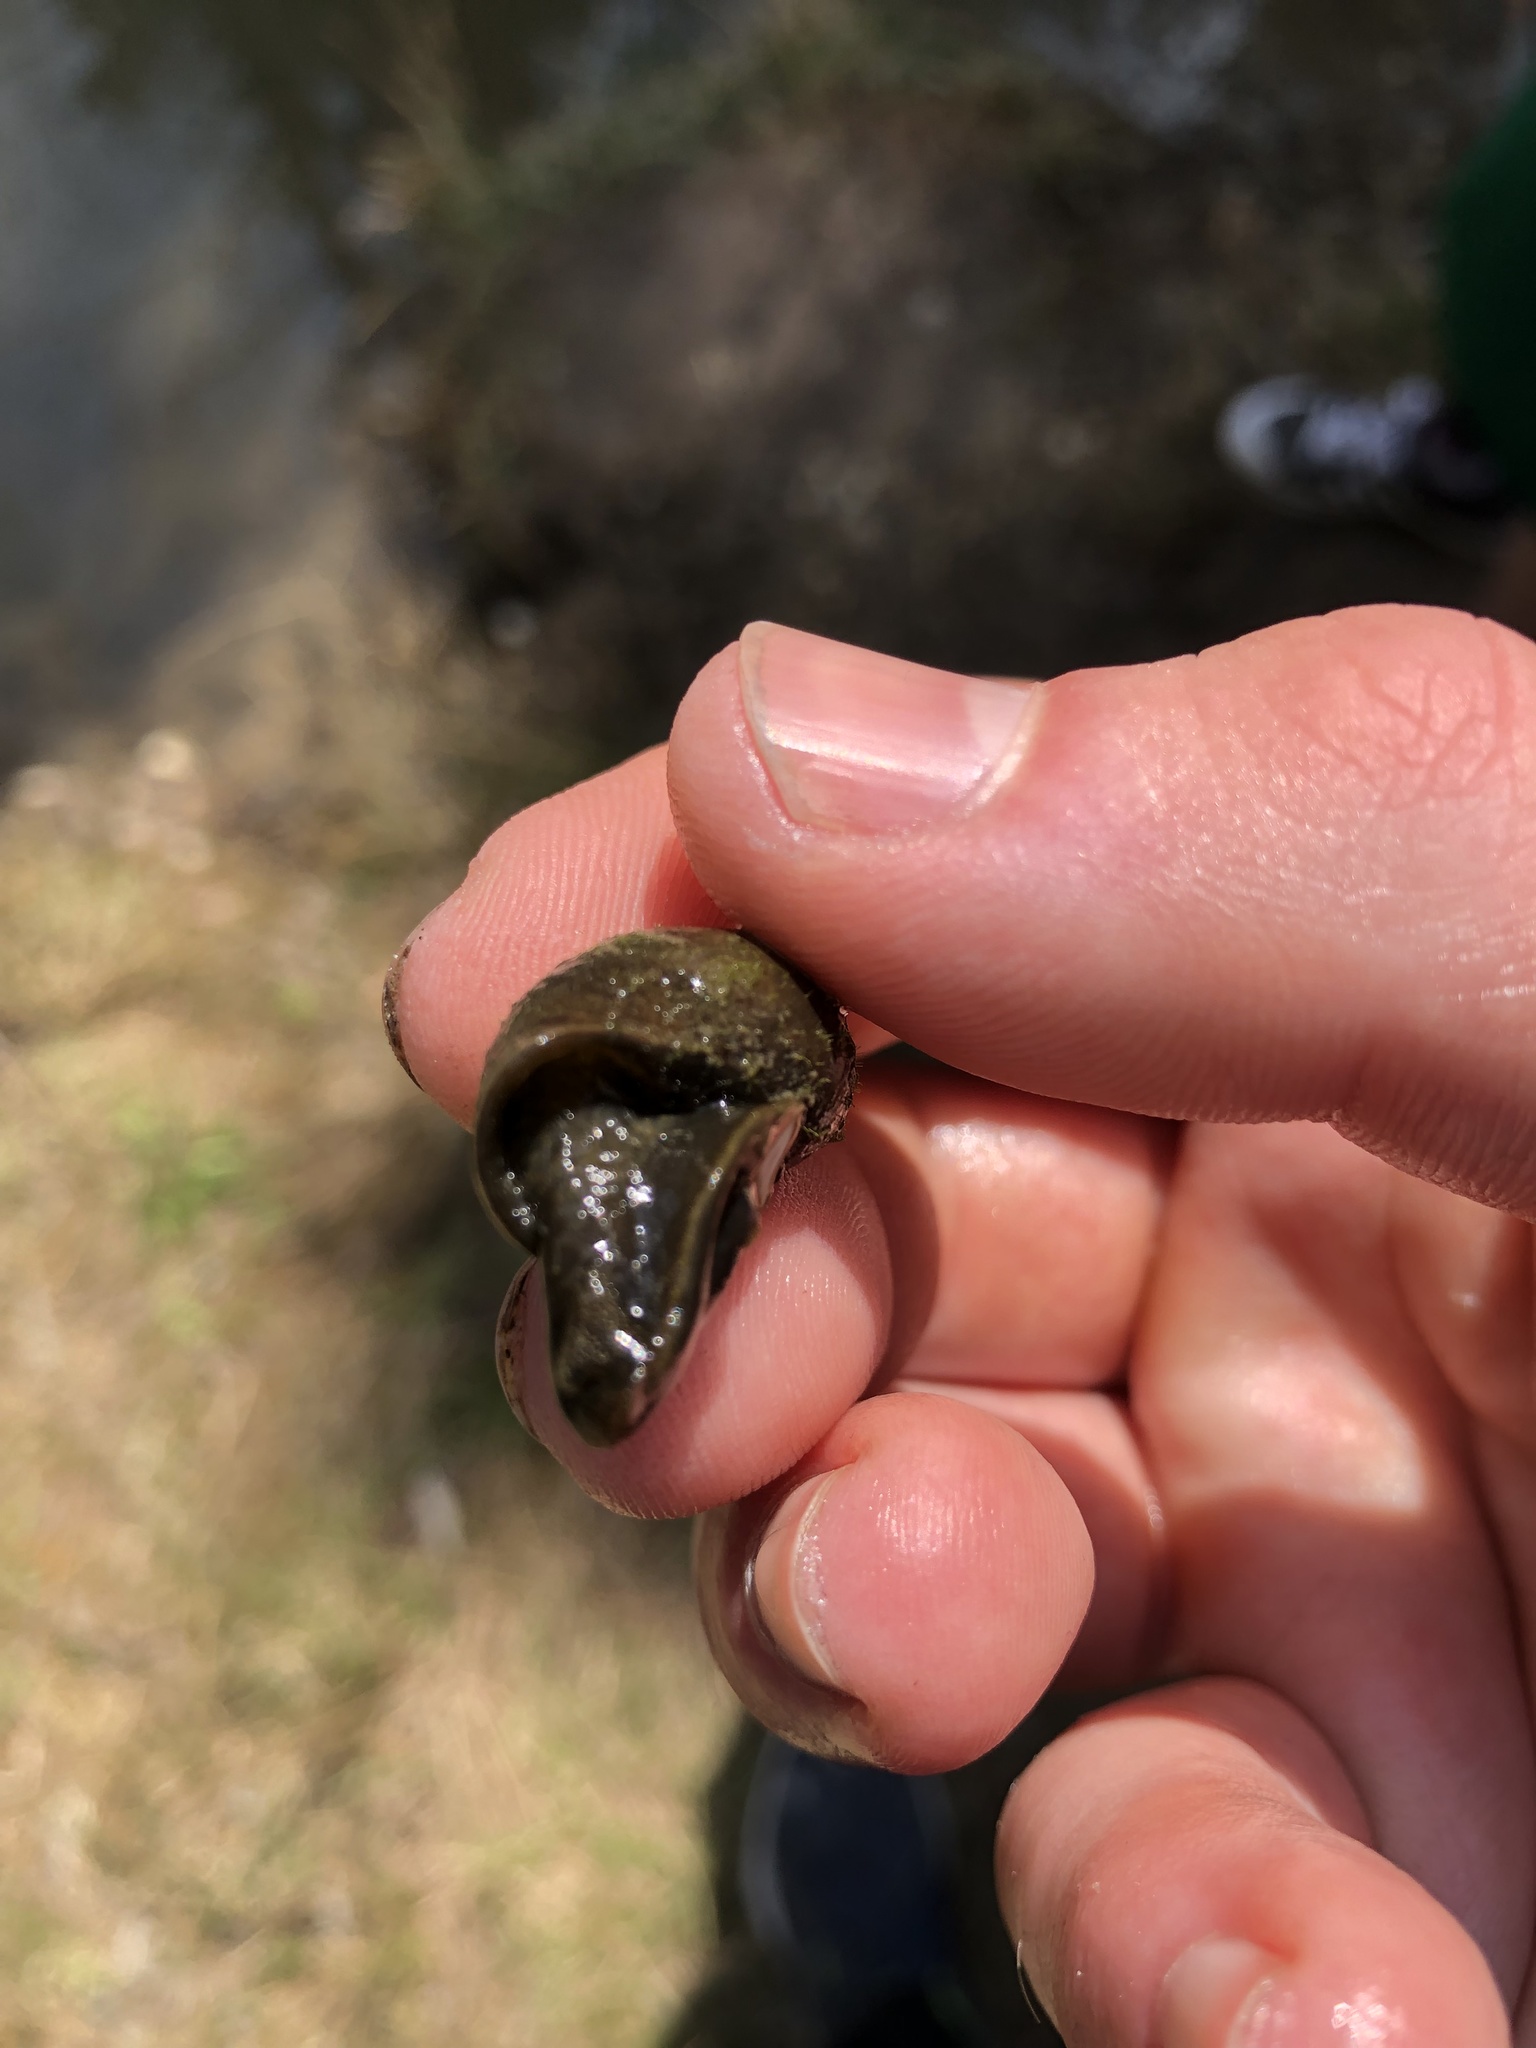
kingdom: Animalia
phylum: Mollusca
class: Gastropoda
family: Lymnaeidae
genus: Lymnaea
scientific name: Lymnaea stagnalis
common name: Great pond snail
